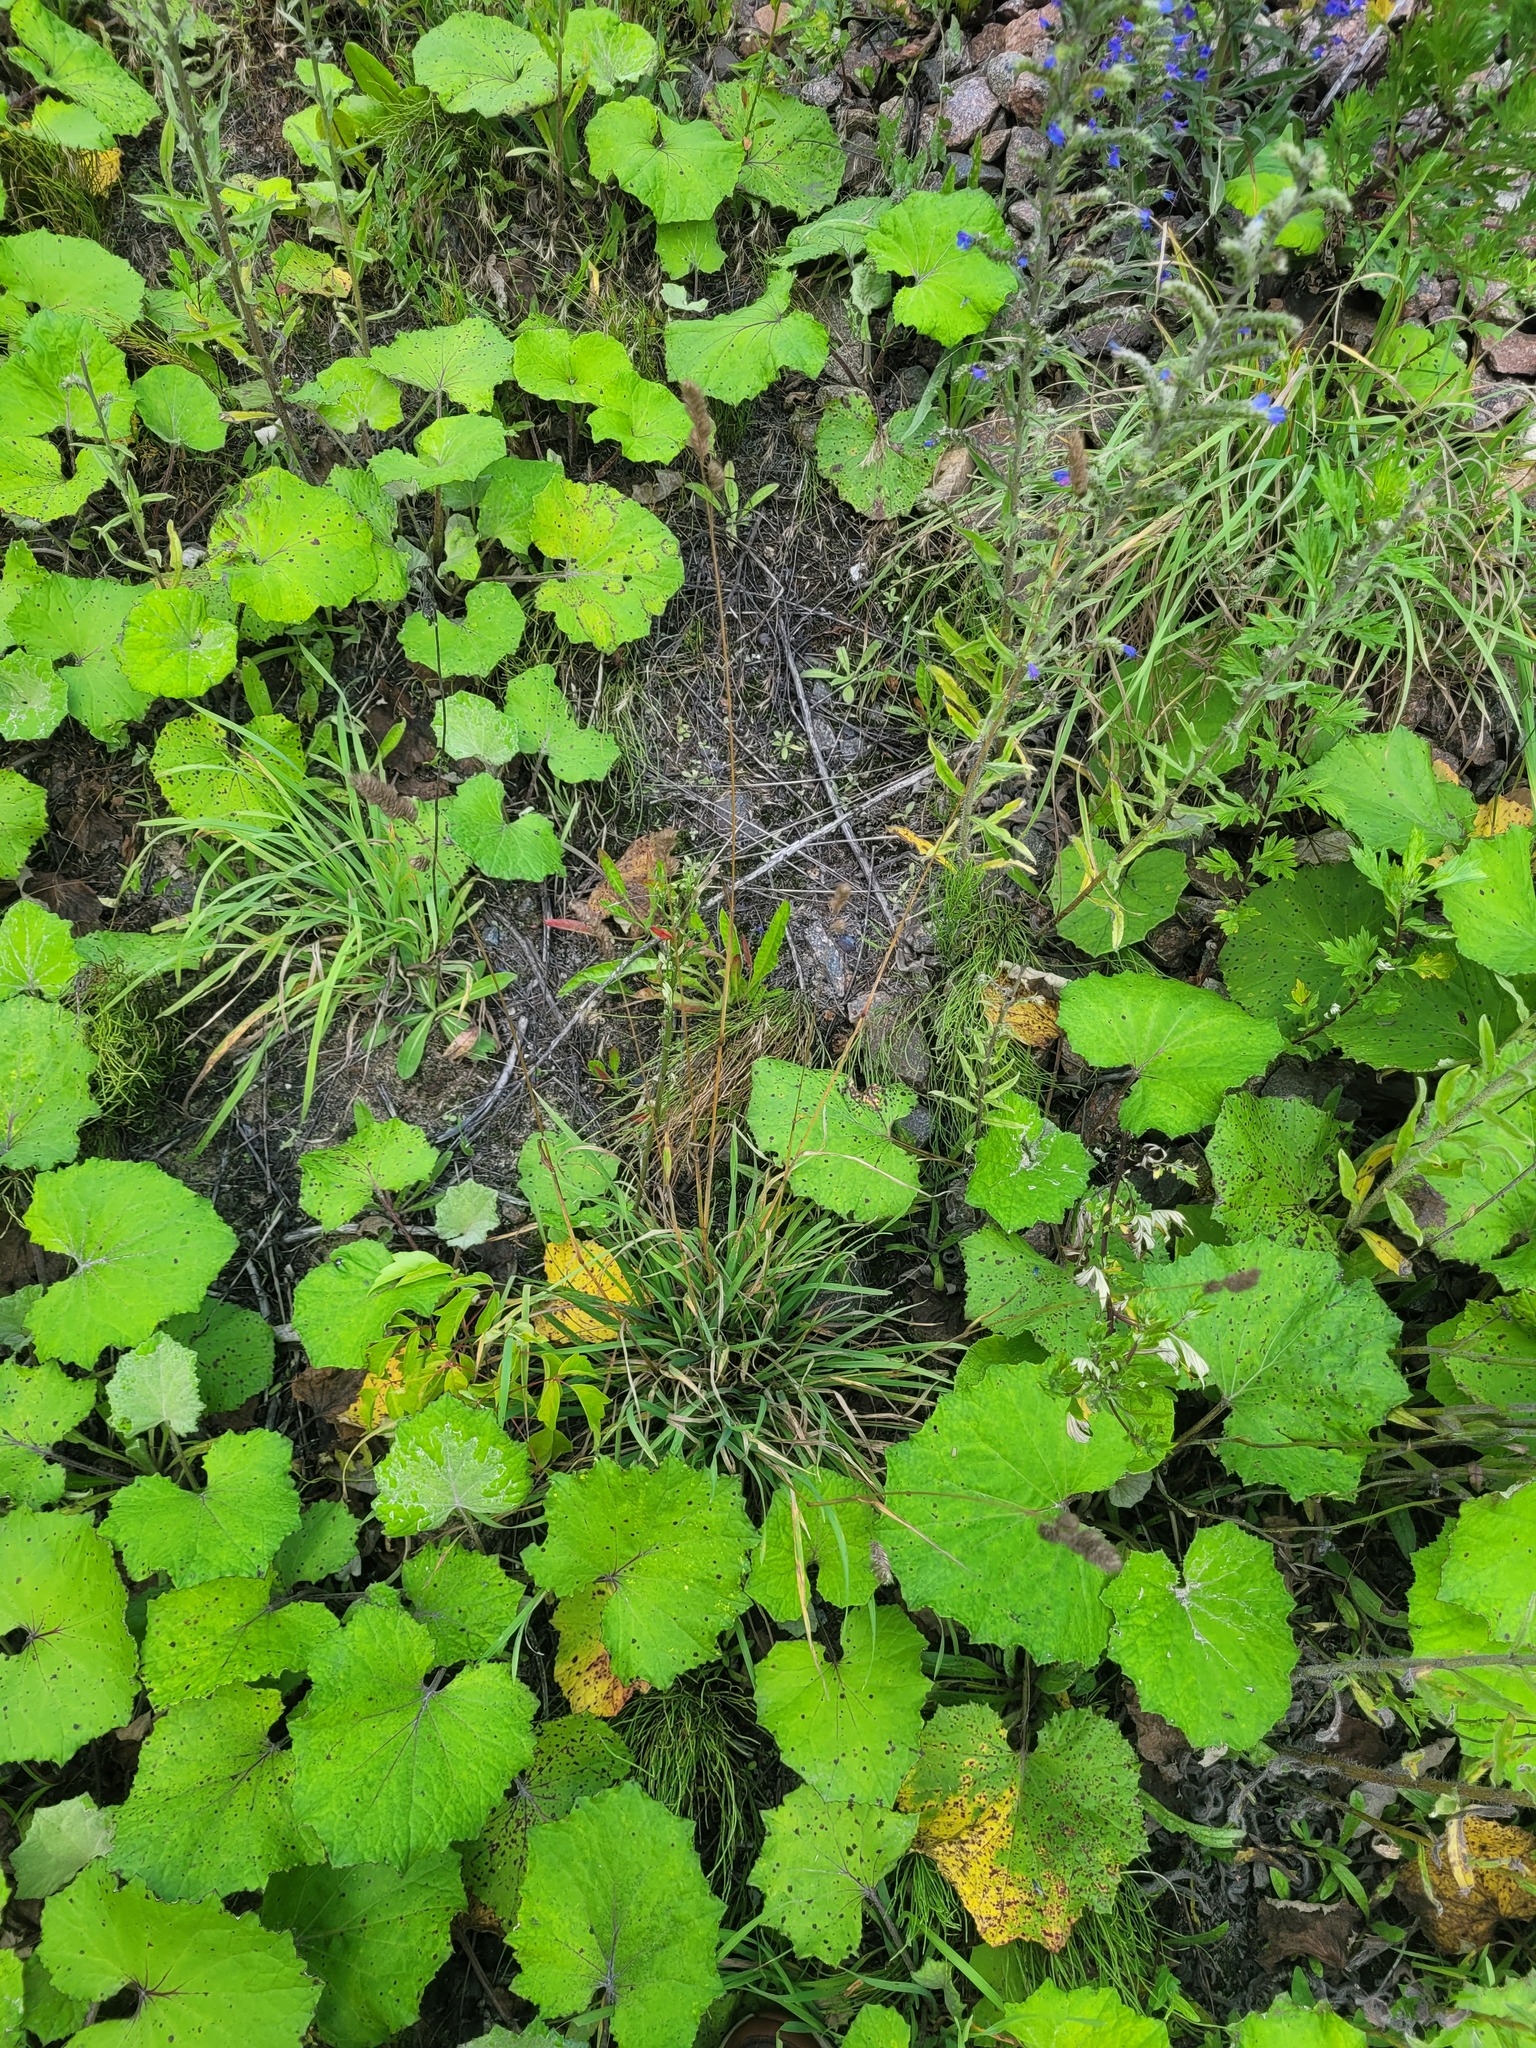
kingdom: Plantae
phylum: Tracheophyta
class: Liliopsida
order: Poales
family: Poaceae
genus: Dactylis
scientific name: Dactylis glomerata
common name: Orchardgrass
